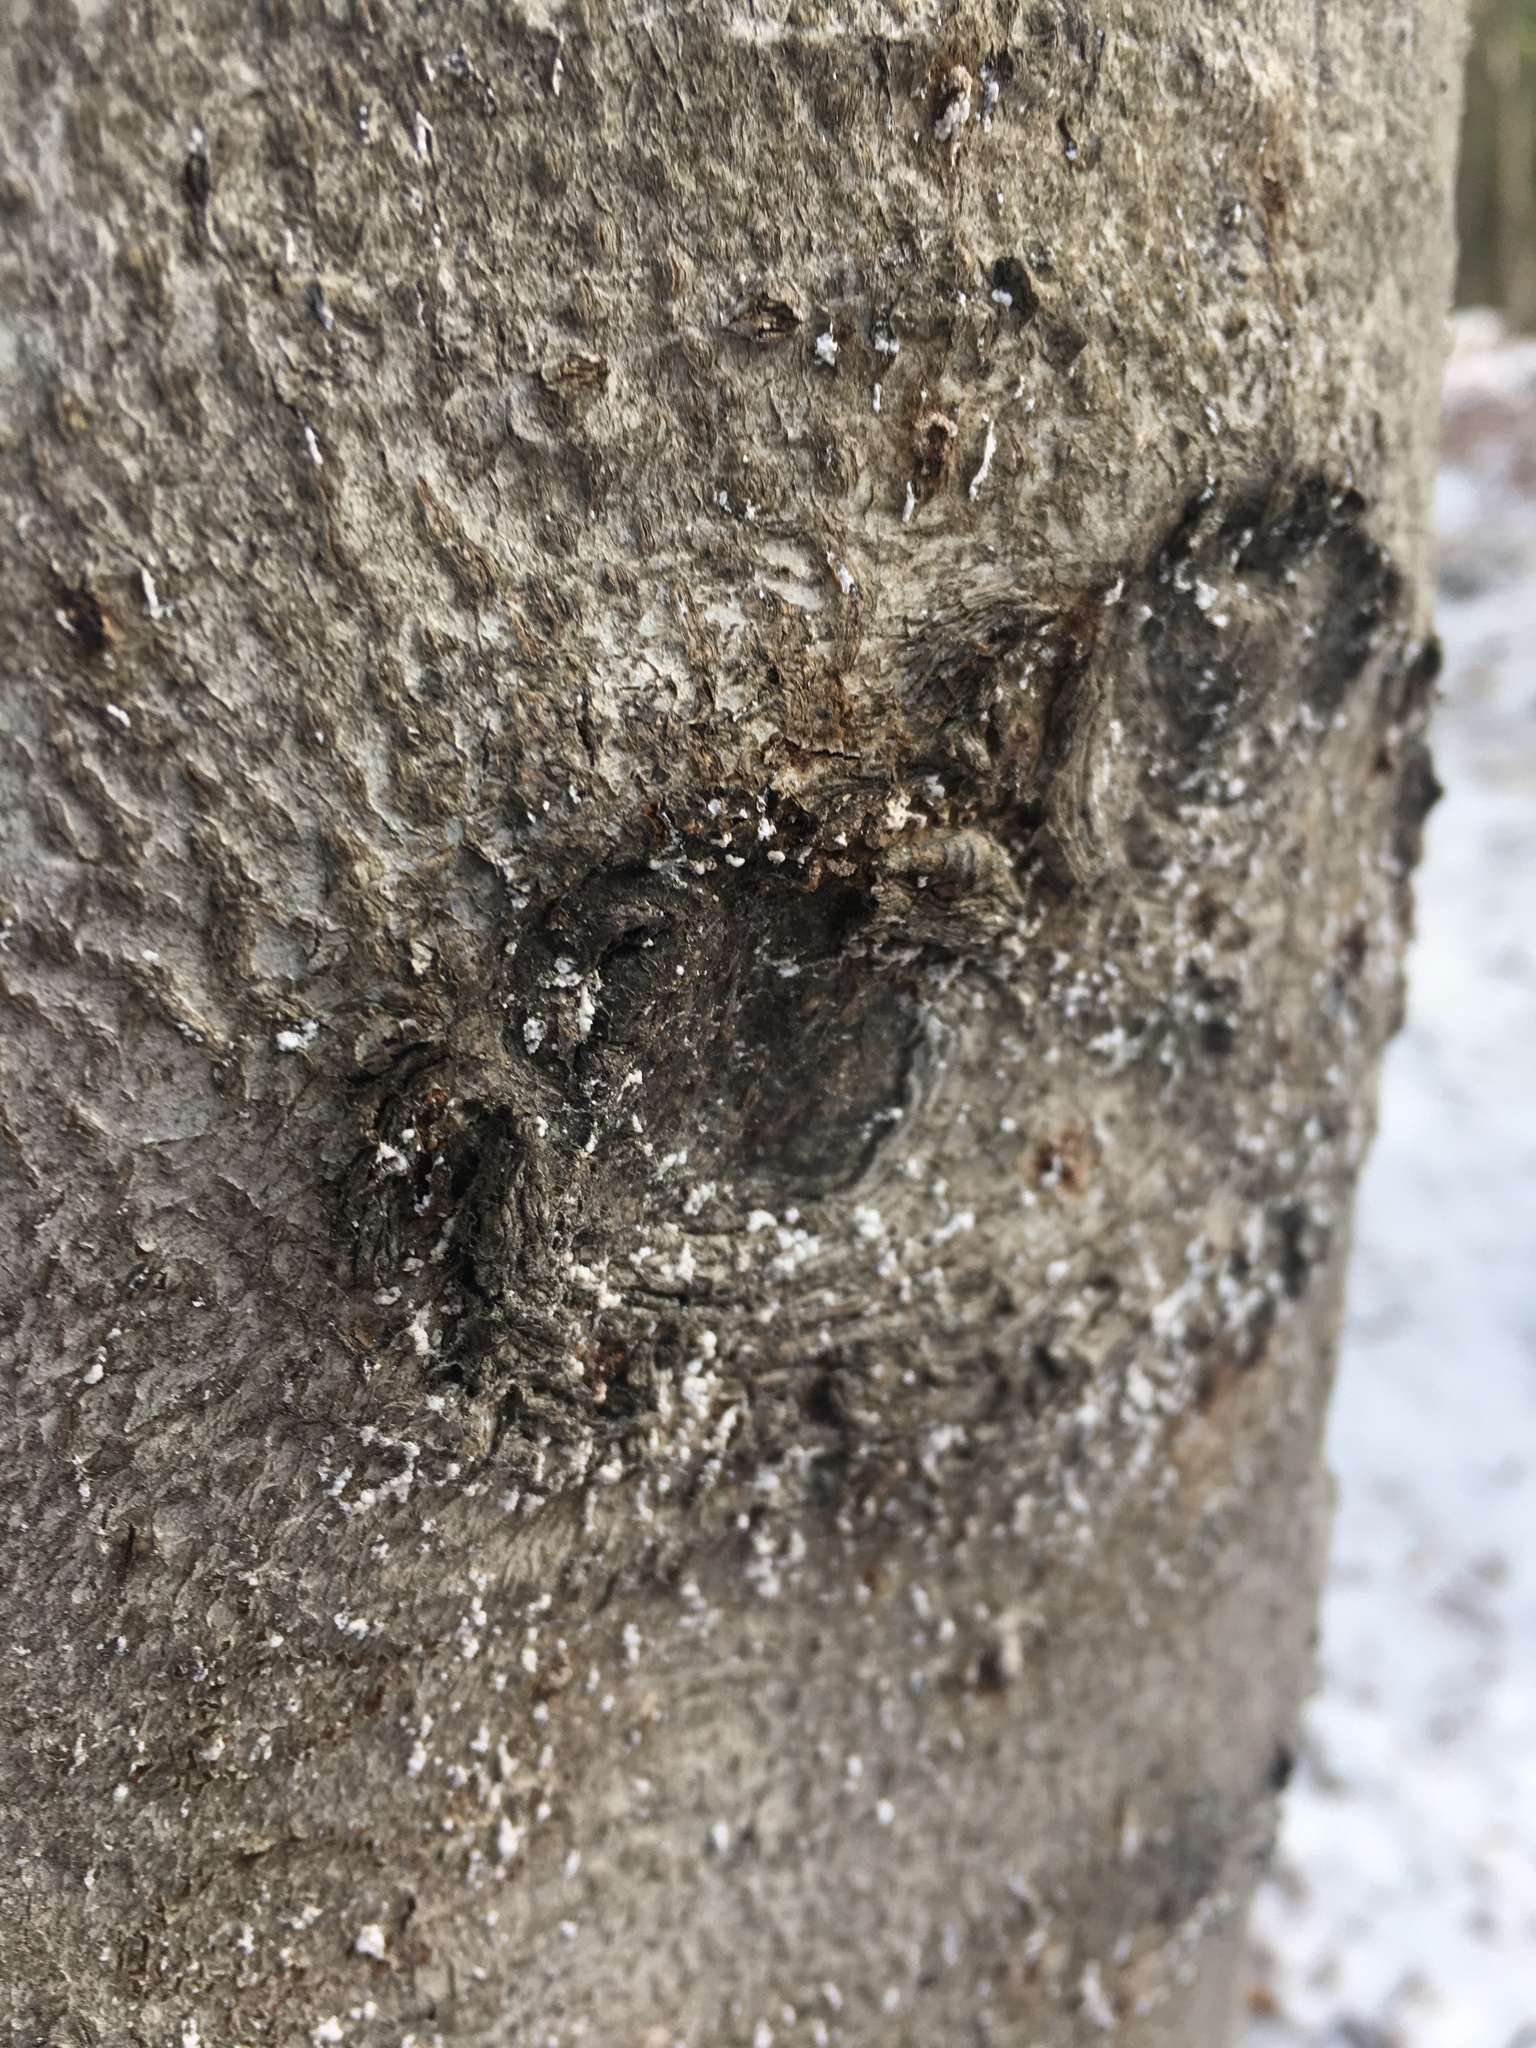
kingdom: Animalia
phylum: Arthropoda
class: Insecta
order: Hemiptera
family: Eriococcidae
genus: Cryptococcus
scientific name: Cryptococcus fagisuga
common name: Beech scale
